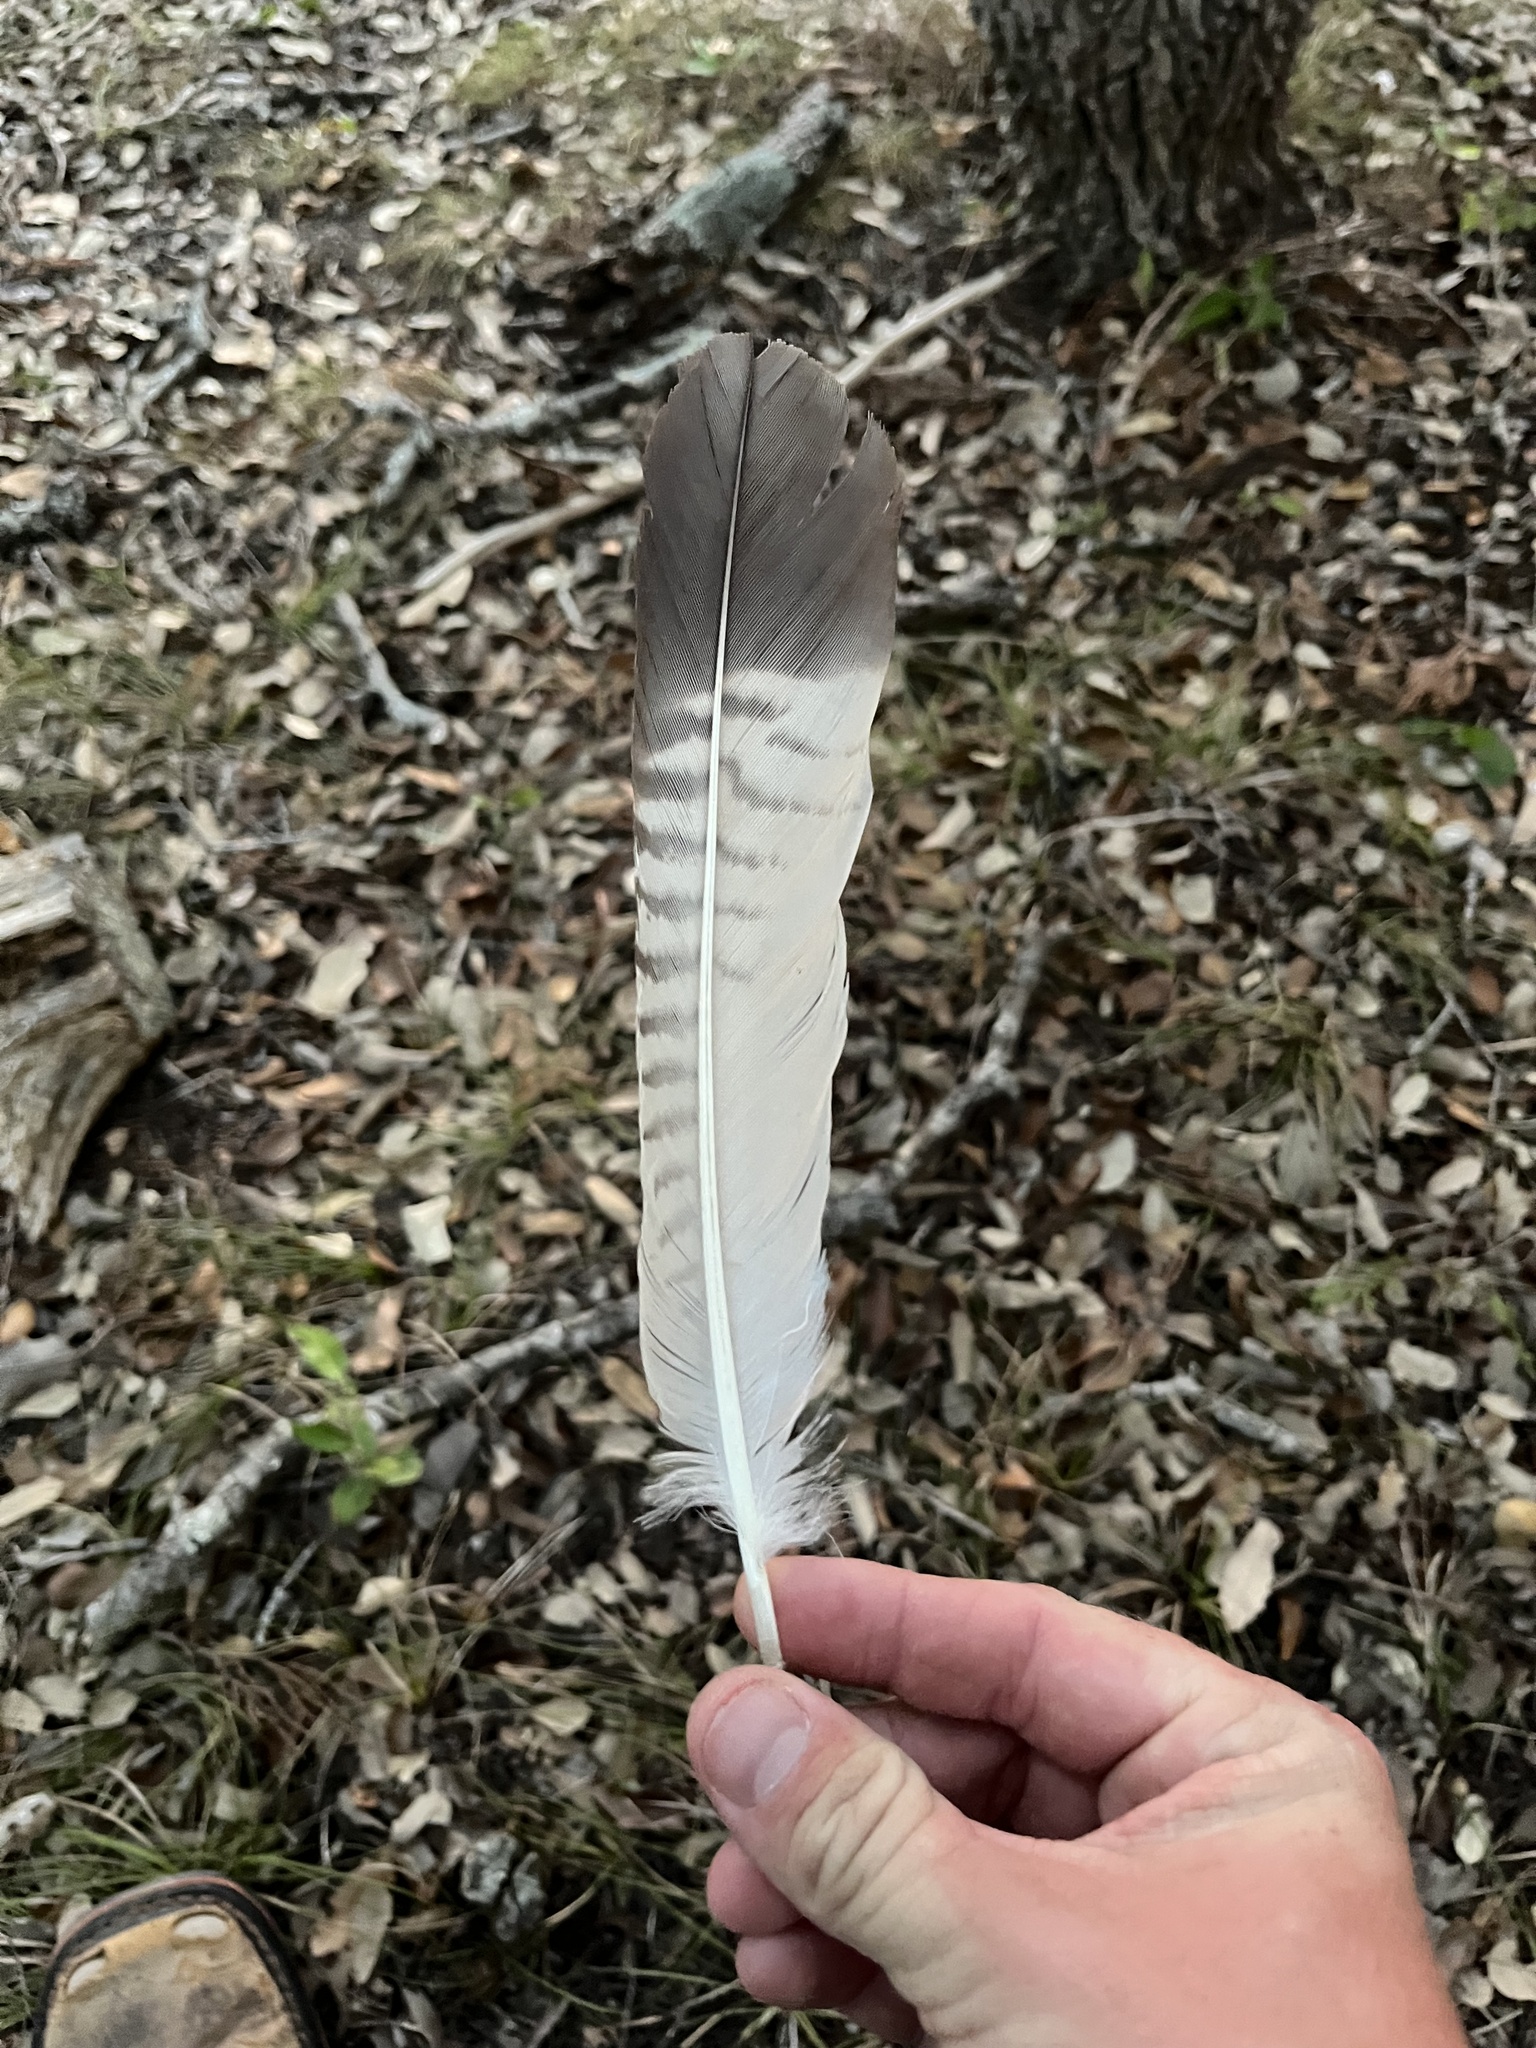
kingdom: Animalia
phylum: Chordata
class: Aves
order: Falconiformes
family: Falconidae
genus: Caracara
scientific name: Caracara plancus
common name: Southern caracara
